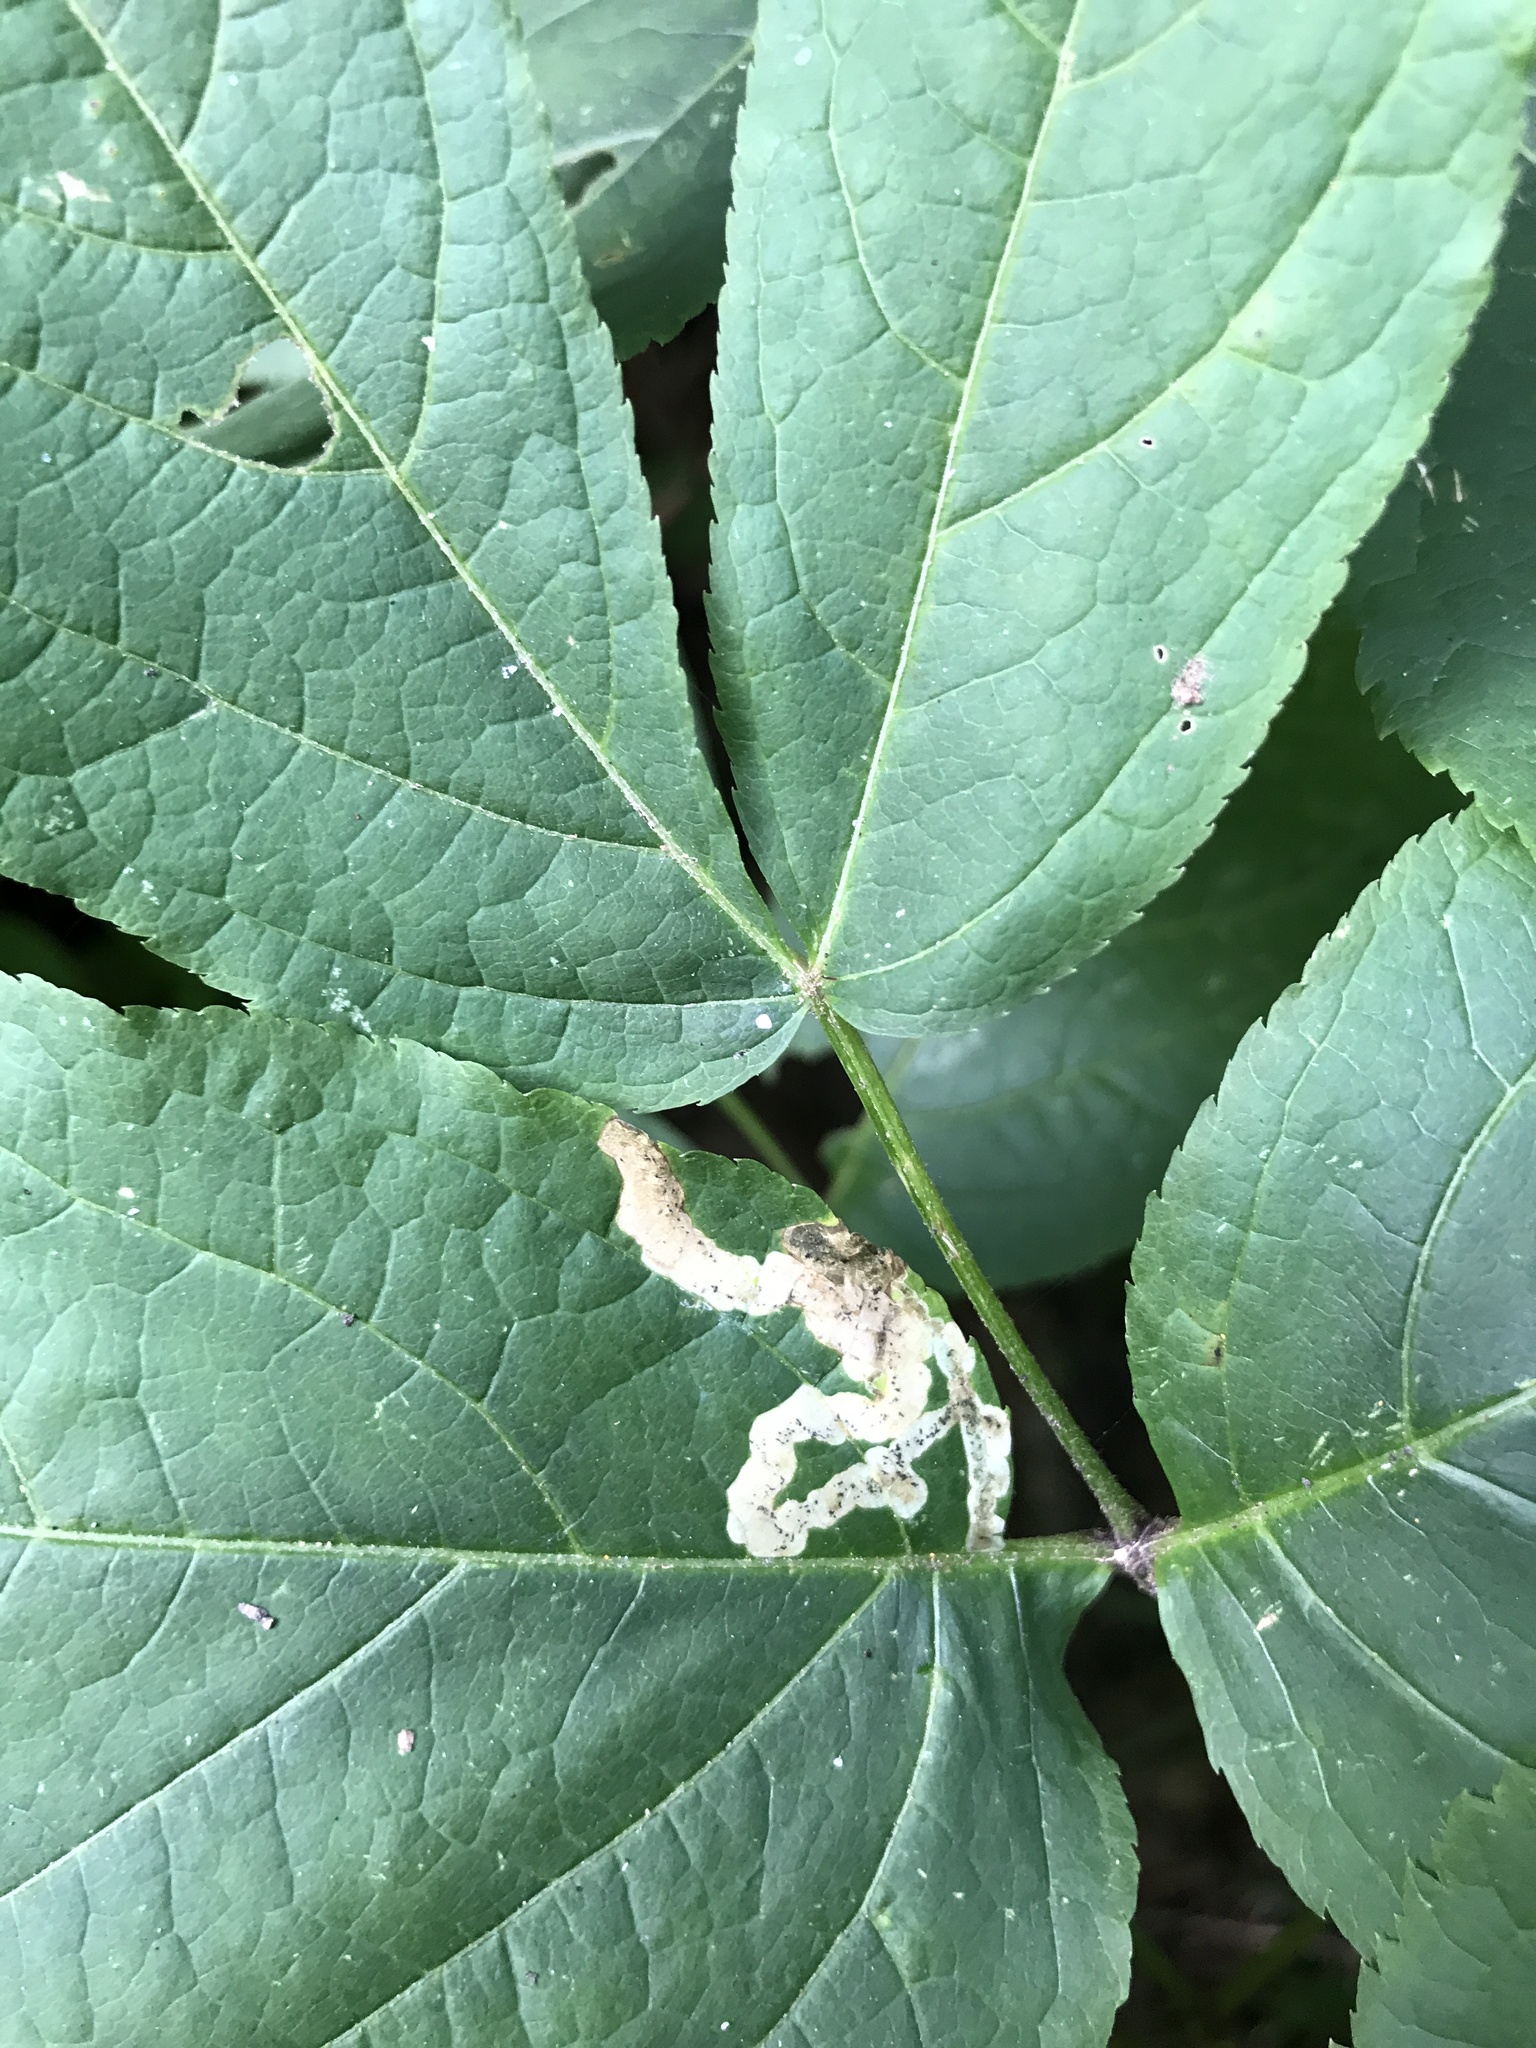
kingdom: Animalia
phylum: Arthropoda
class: Insecta
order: Diptera
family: Agromyzidae
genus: Phytomyza
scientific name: Phytomyza aralivora
